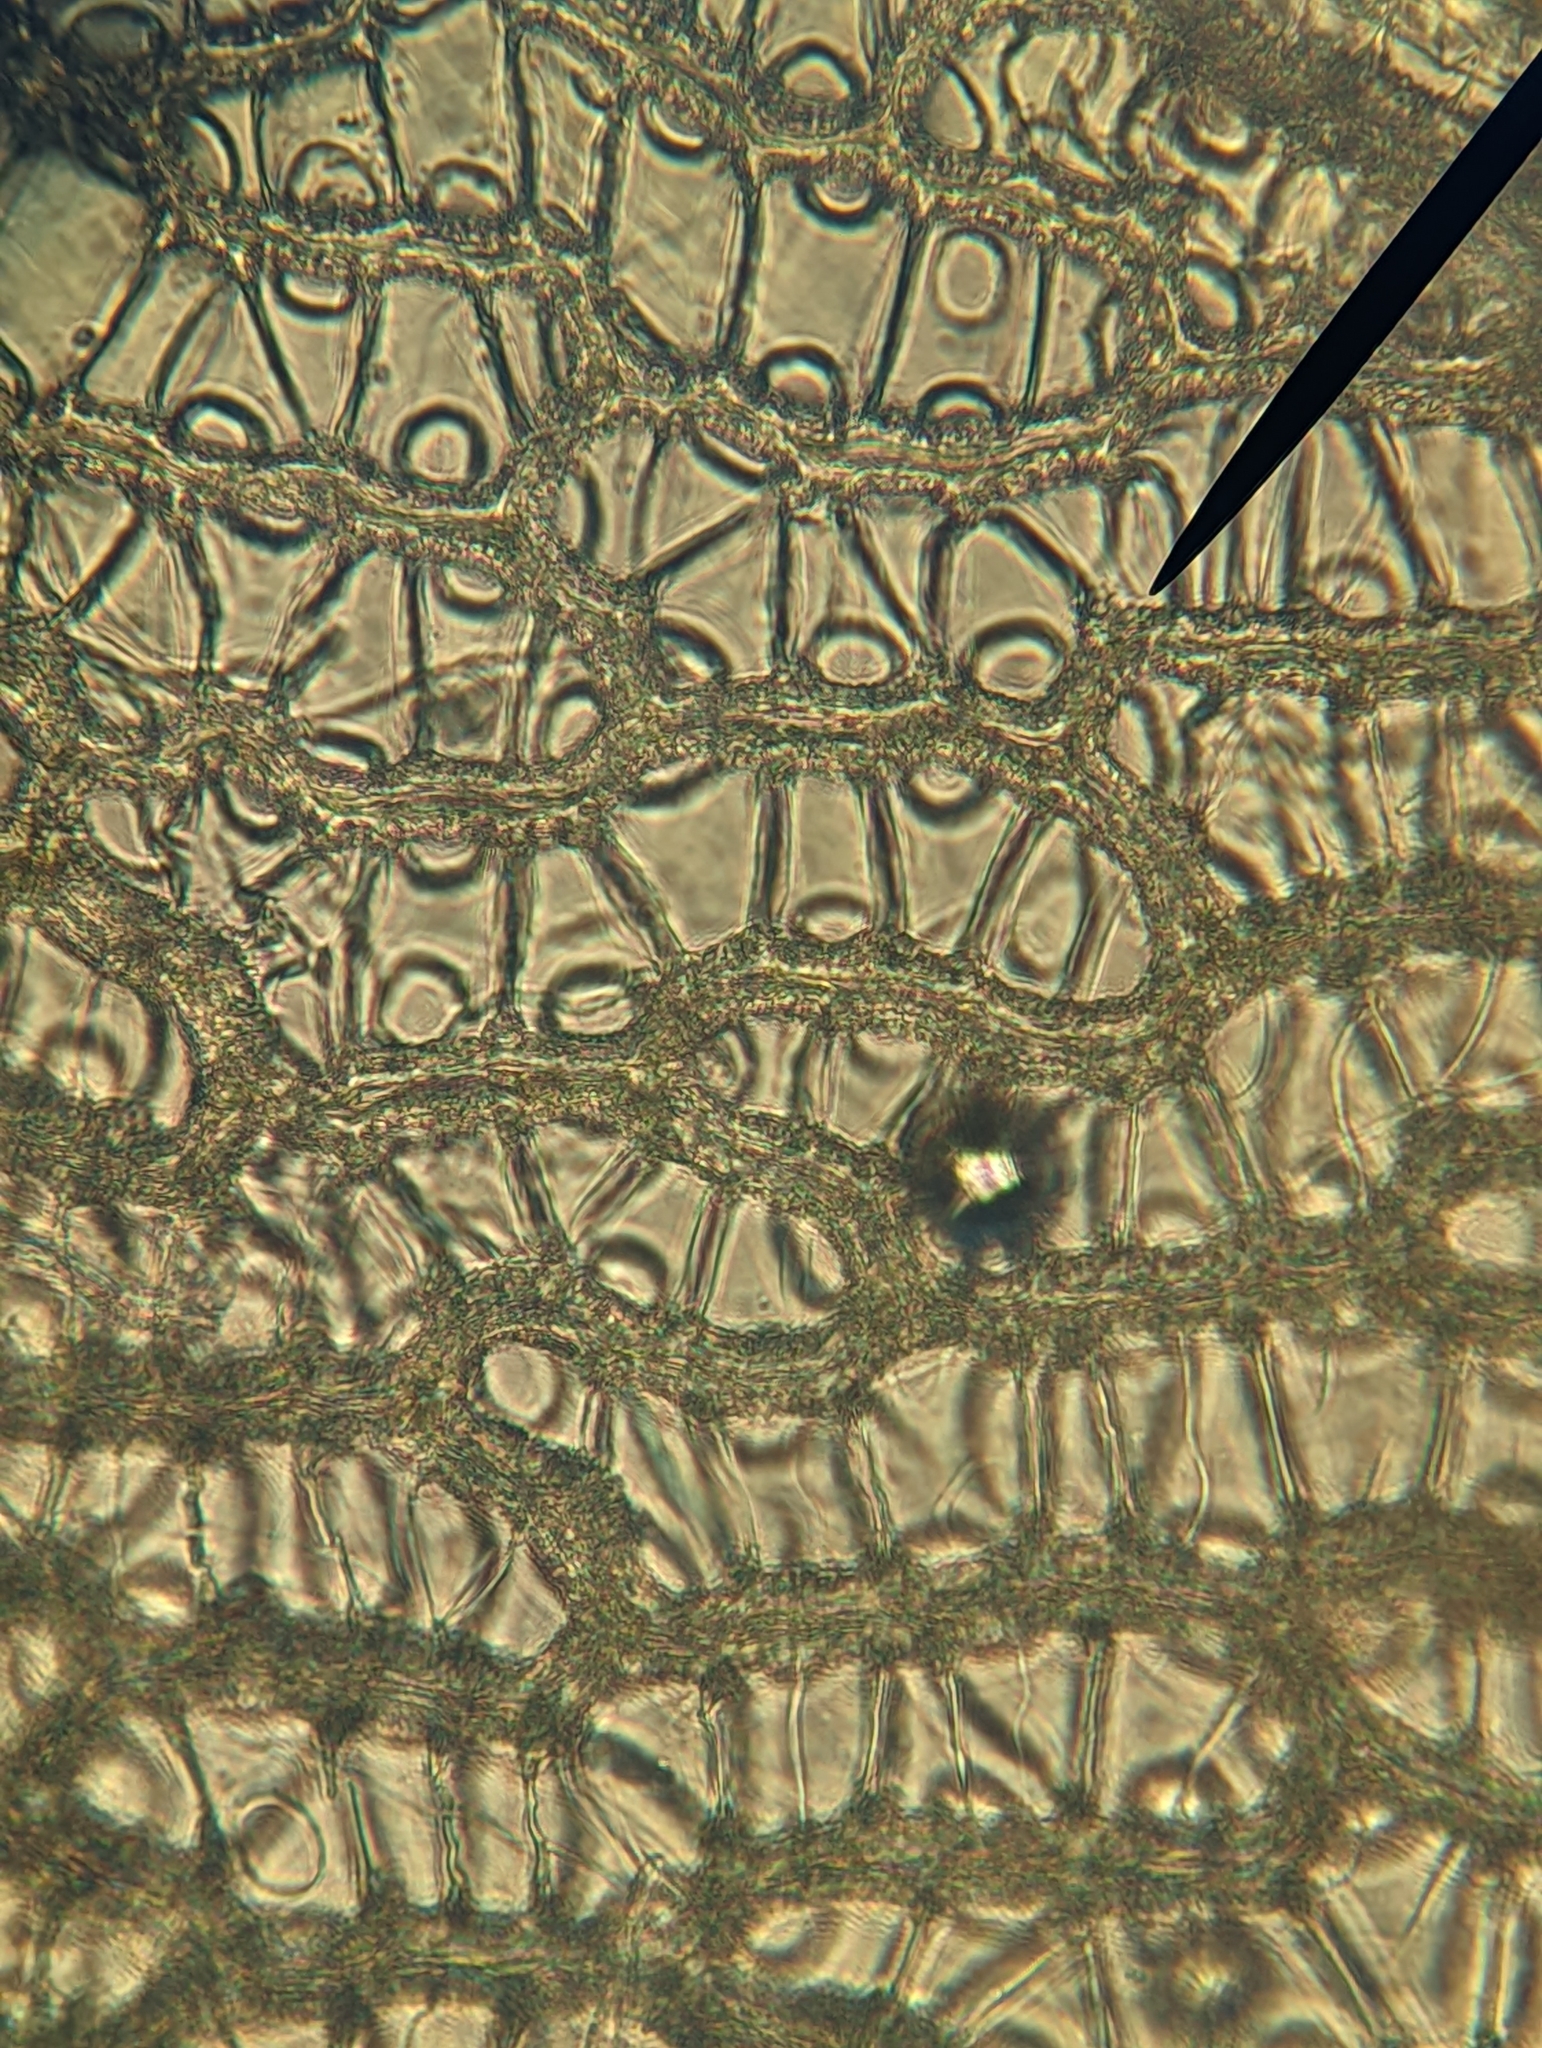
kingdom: Plantae
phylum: Bryophyta
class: Sphagnopsida
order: Sphagnales
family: Sphagnaceae
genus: Sphagnum
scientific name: Sphagnum papillosum
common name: Papillose peat moss
